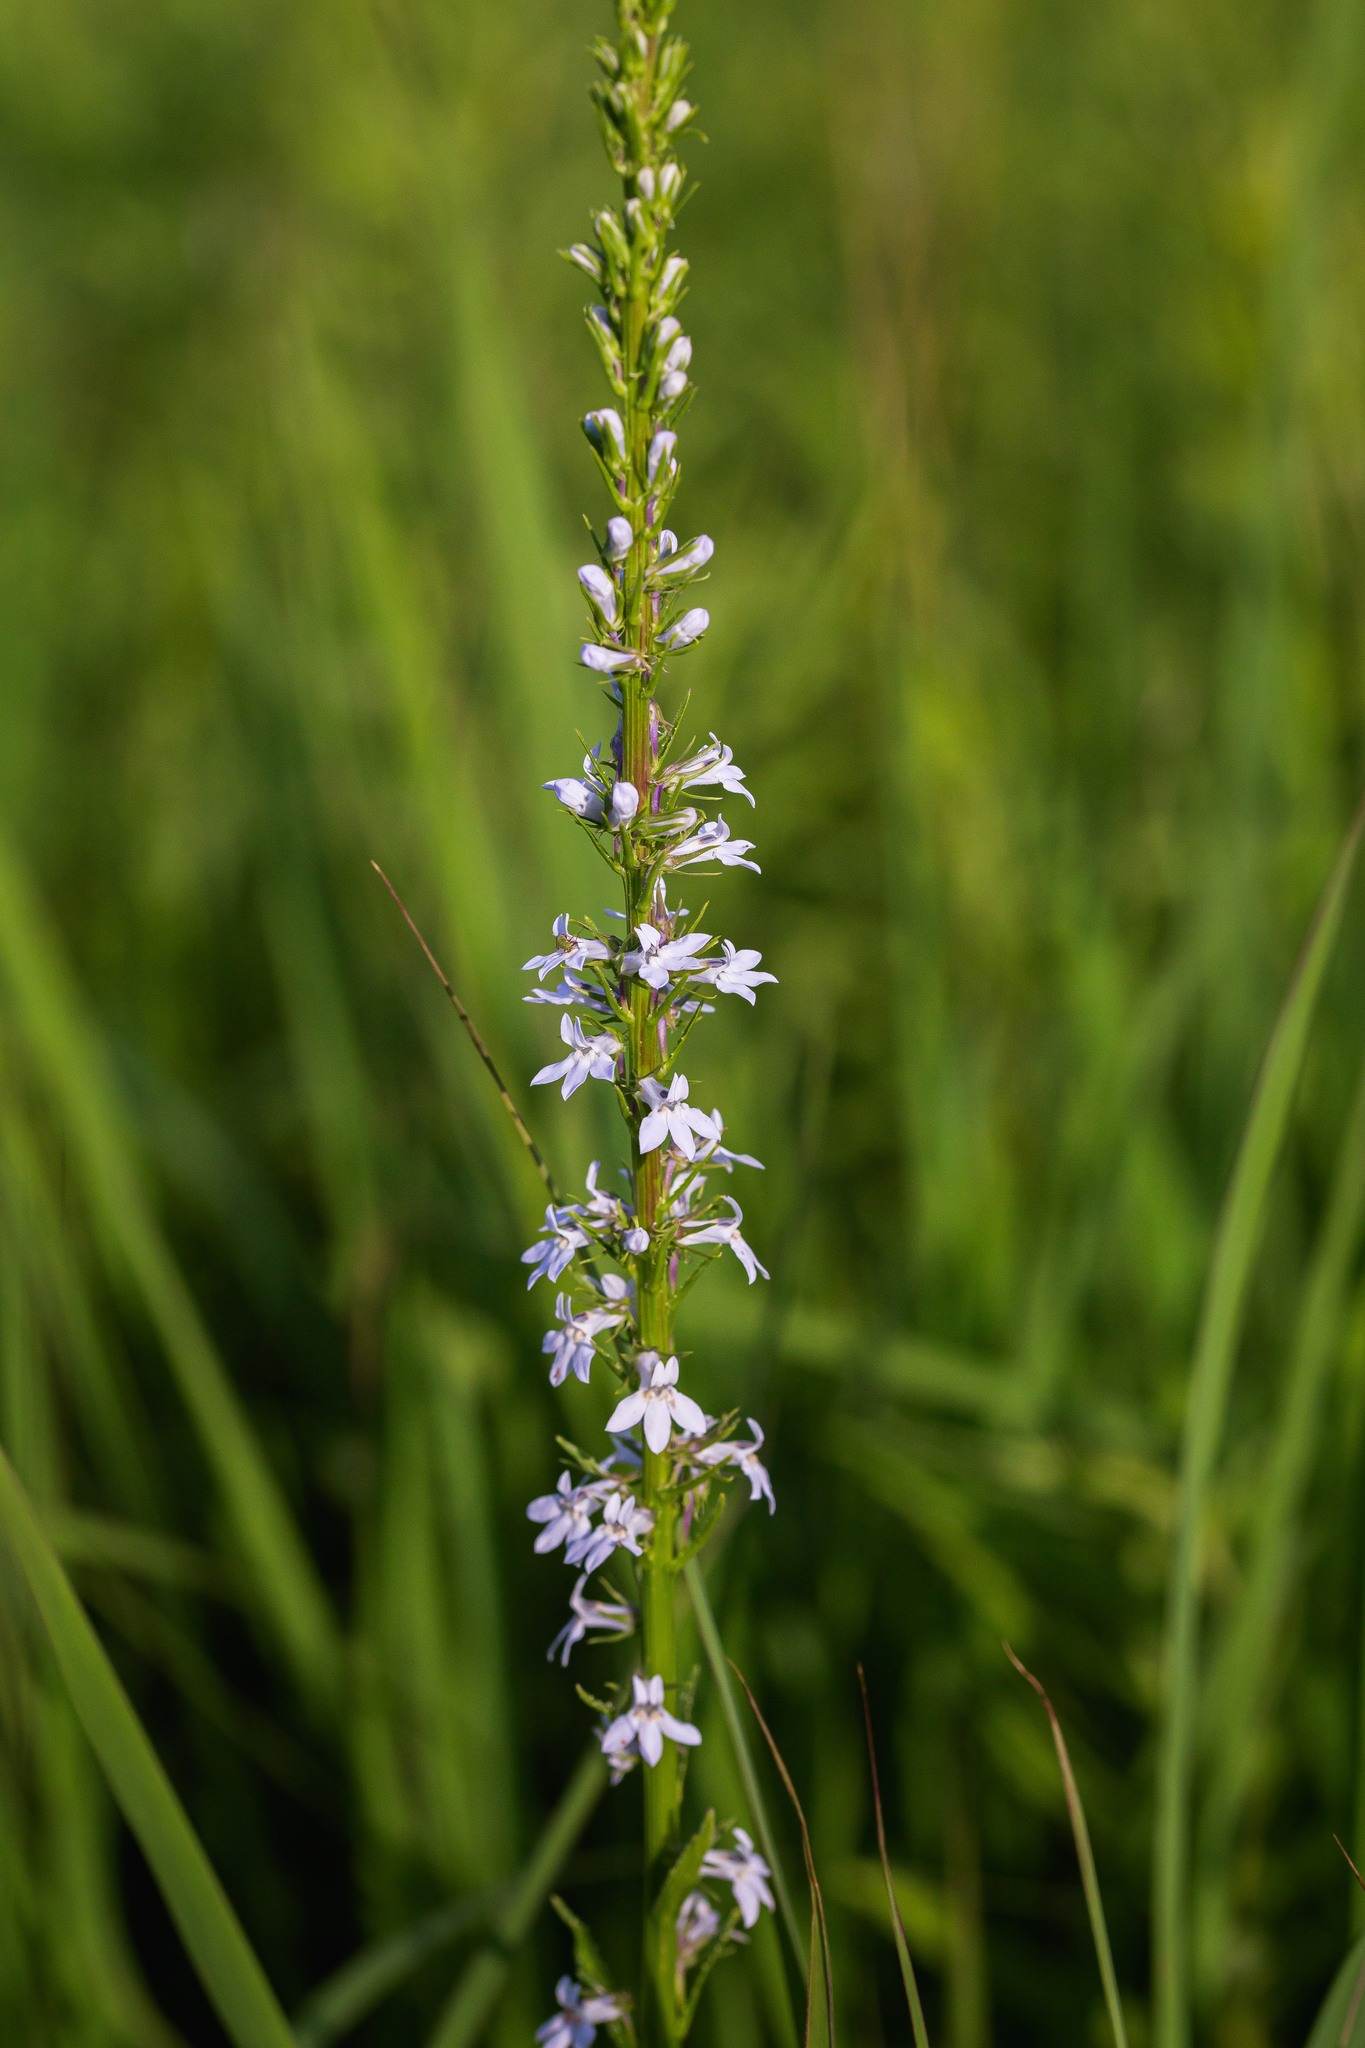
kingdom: Plantae
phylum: Tracheophyta
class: Magnoliopsida
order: Asterales
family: Campanulaceae
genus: Lobelia
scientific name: Lobelia spicata
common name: Pale-spike lobelia
